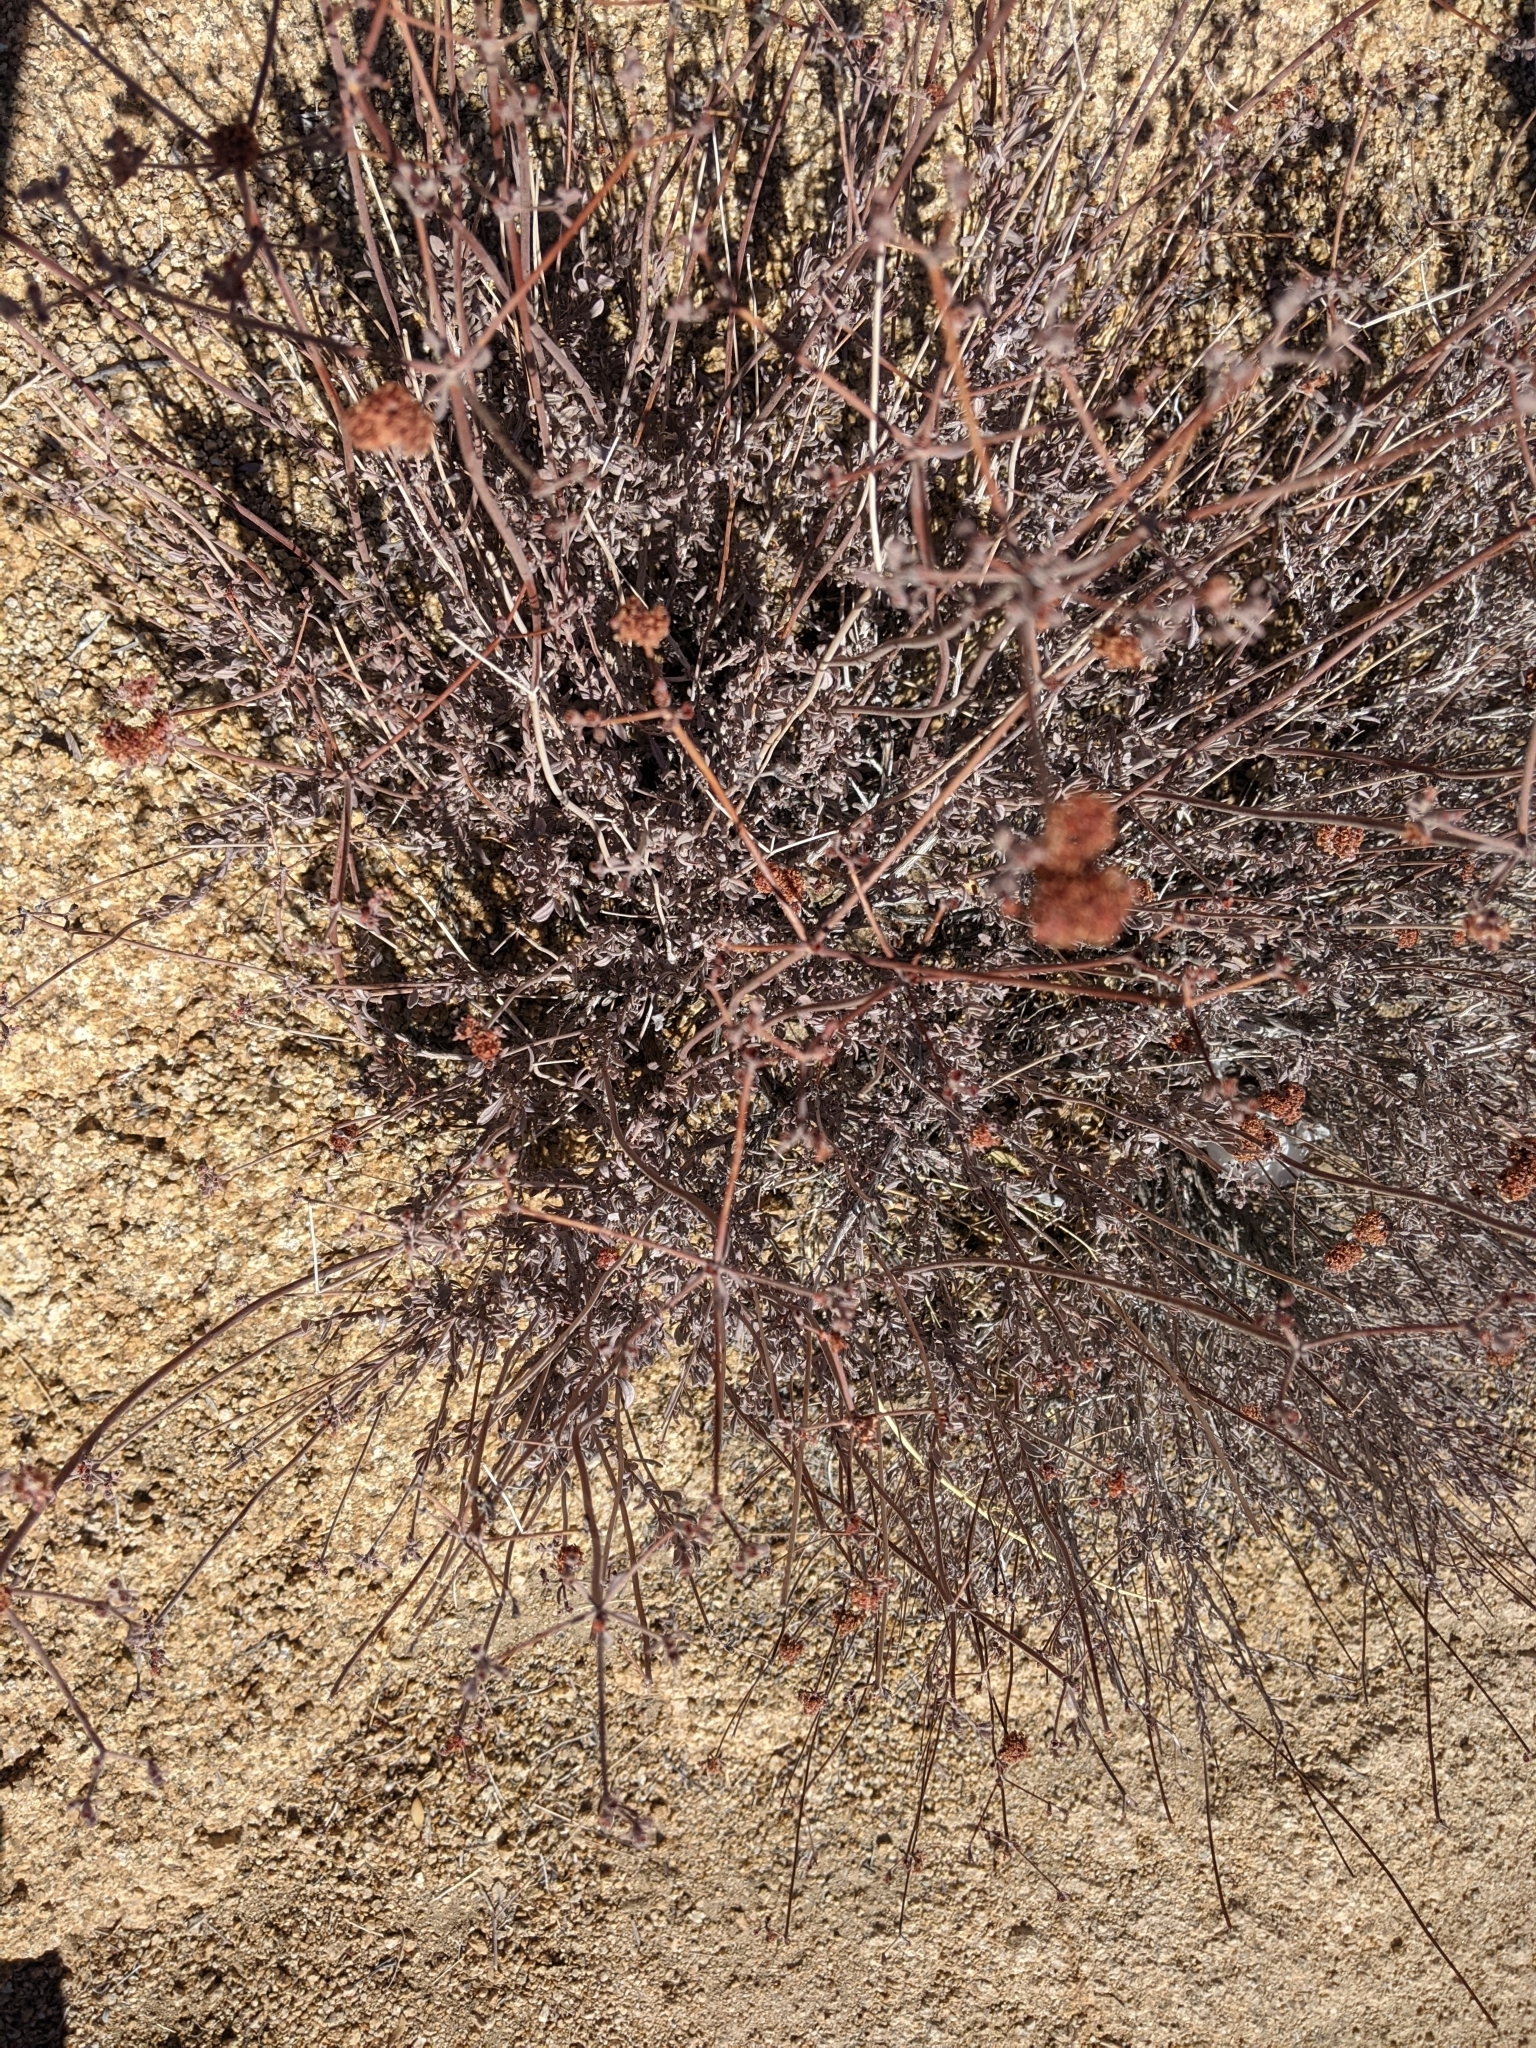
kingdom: Plantae
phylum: Tracheophyta
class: Magnoliopsida
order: Caryophyllales
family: Polygonaceae
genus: Eriogonum
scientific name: Eriogonum fasciculatum
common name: California wild buckwheat
